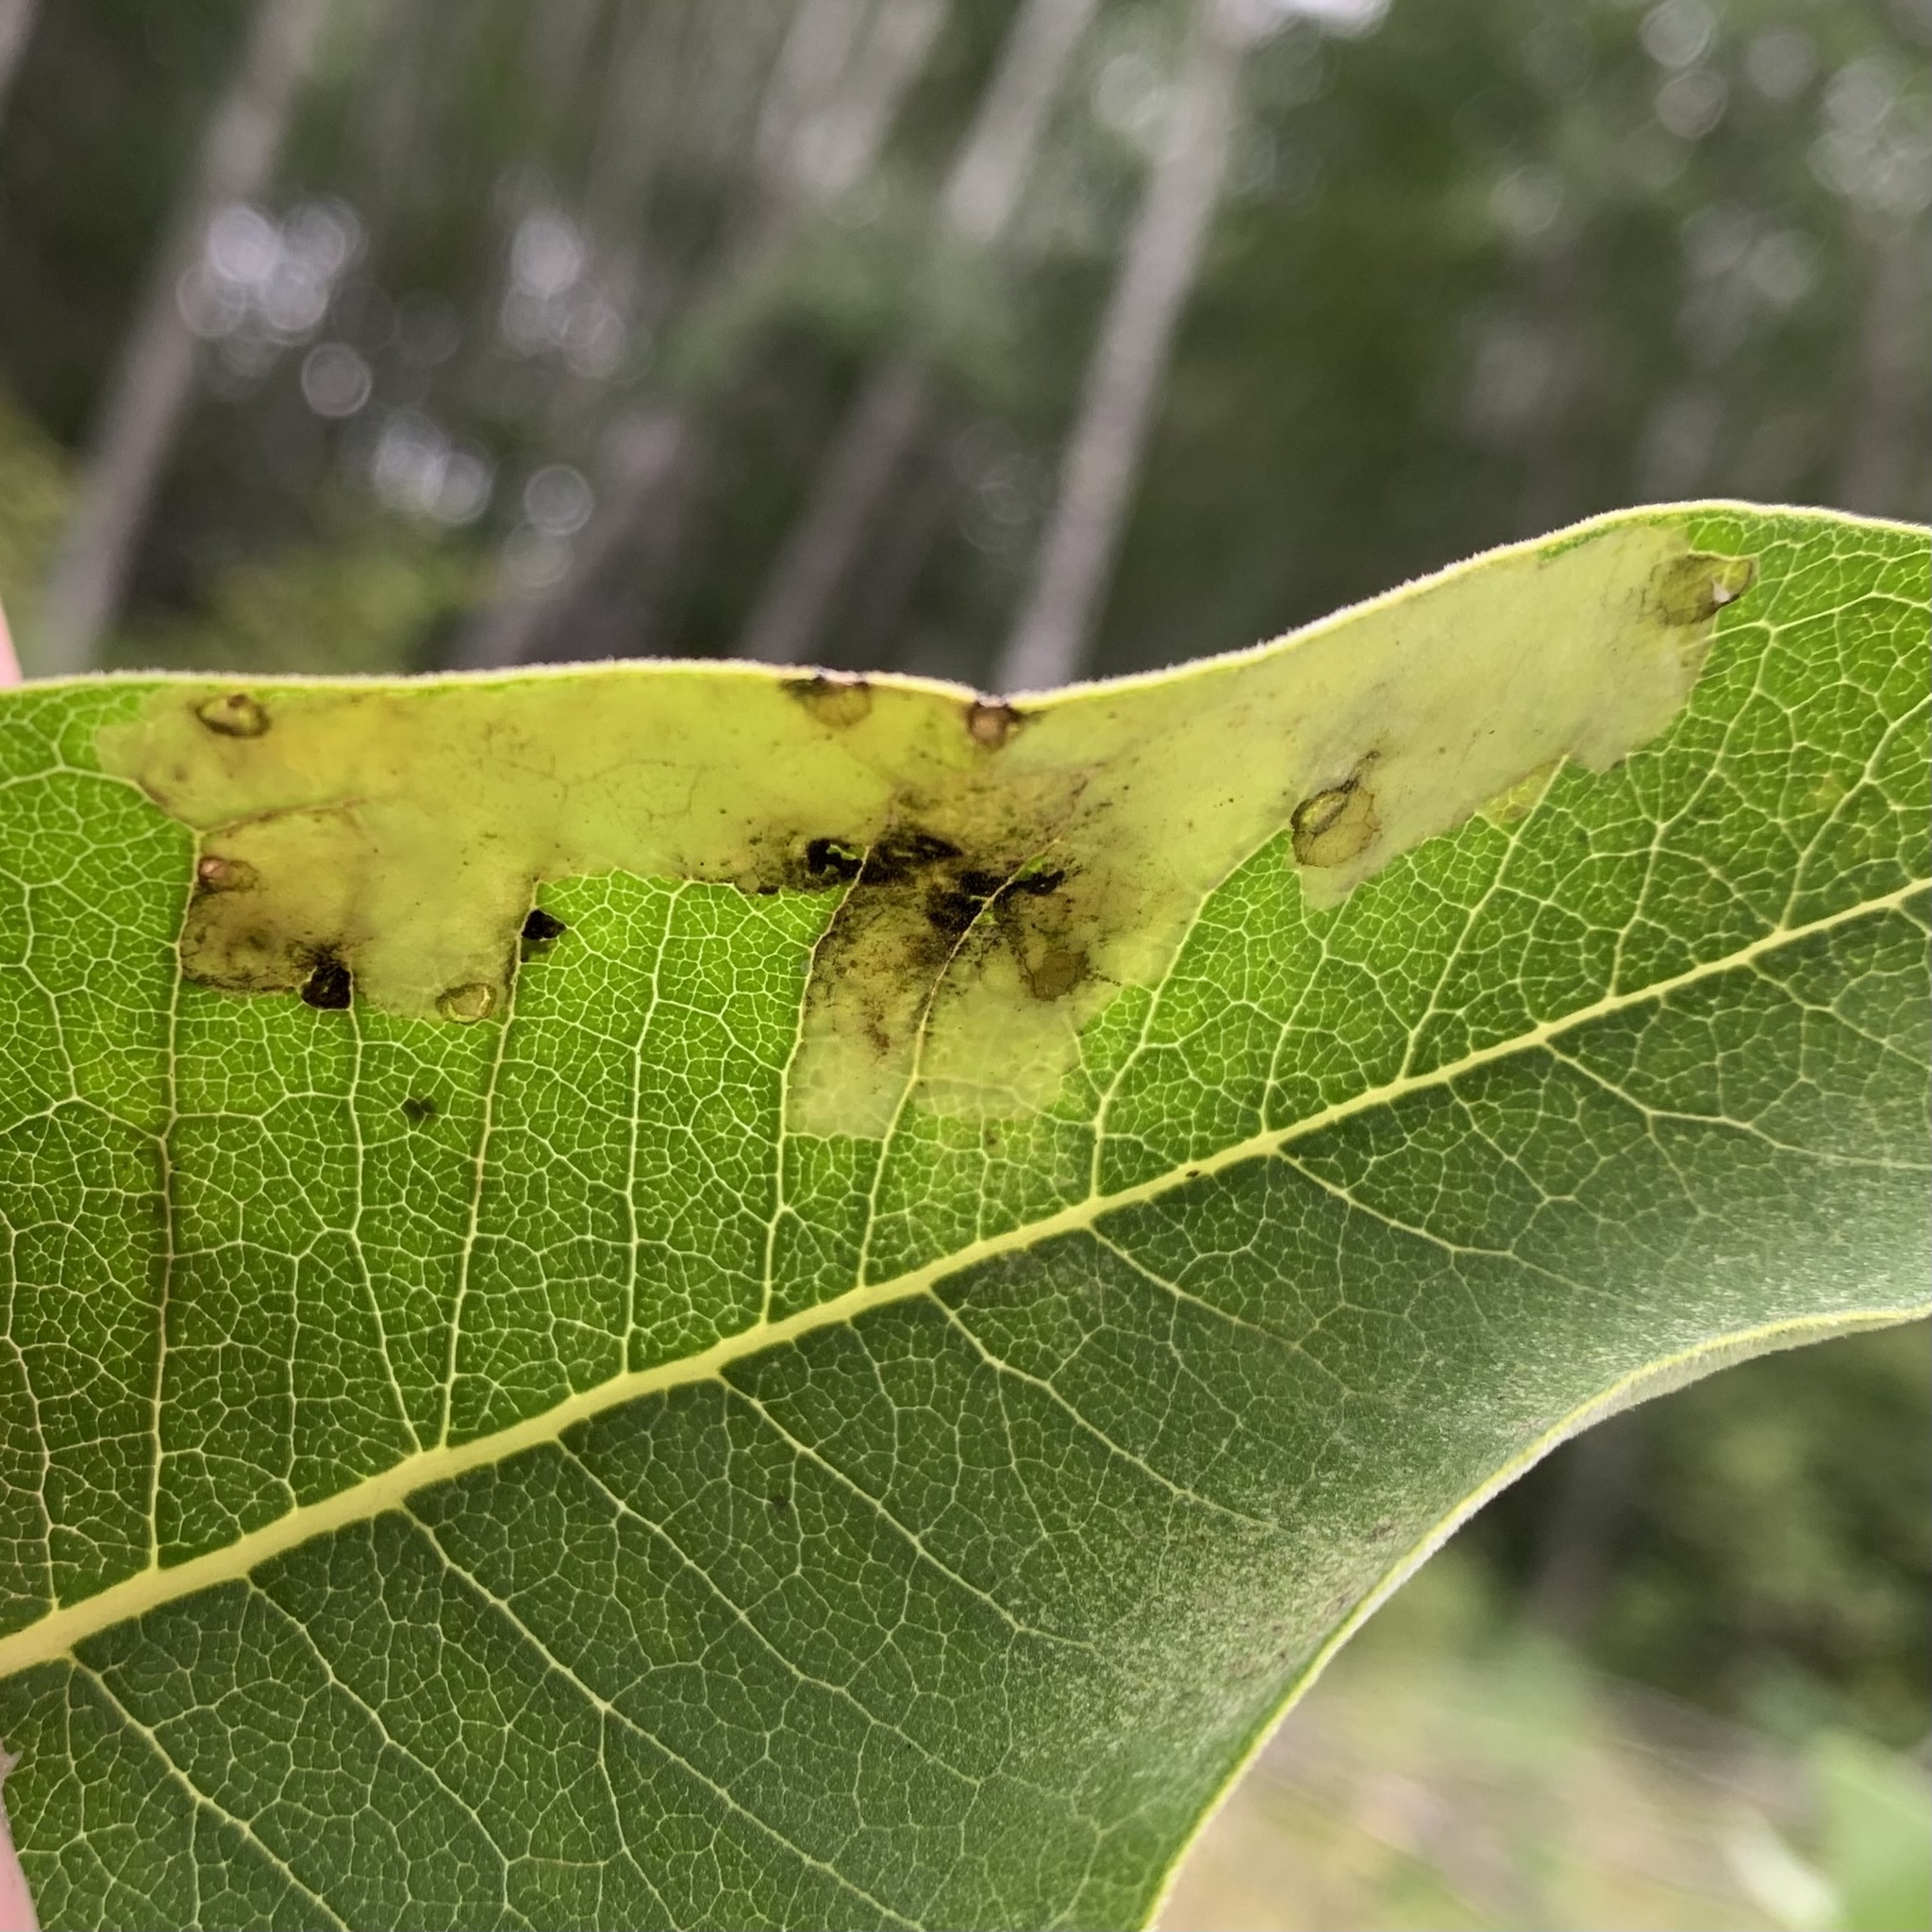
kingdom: Animalia
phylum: Arthropoda
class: Insecta
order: Diptera
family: Agromyzidae
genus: Liriomyza
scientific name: Liriomyza asclepiadis
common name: Milkweed leaf-miner fly
